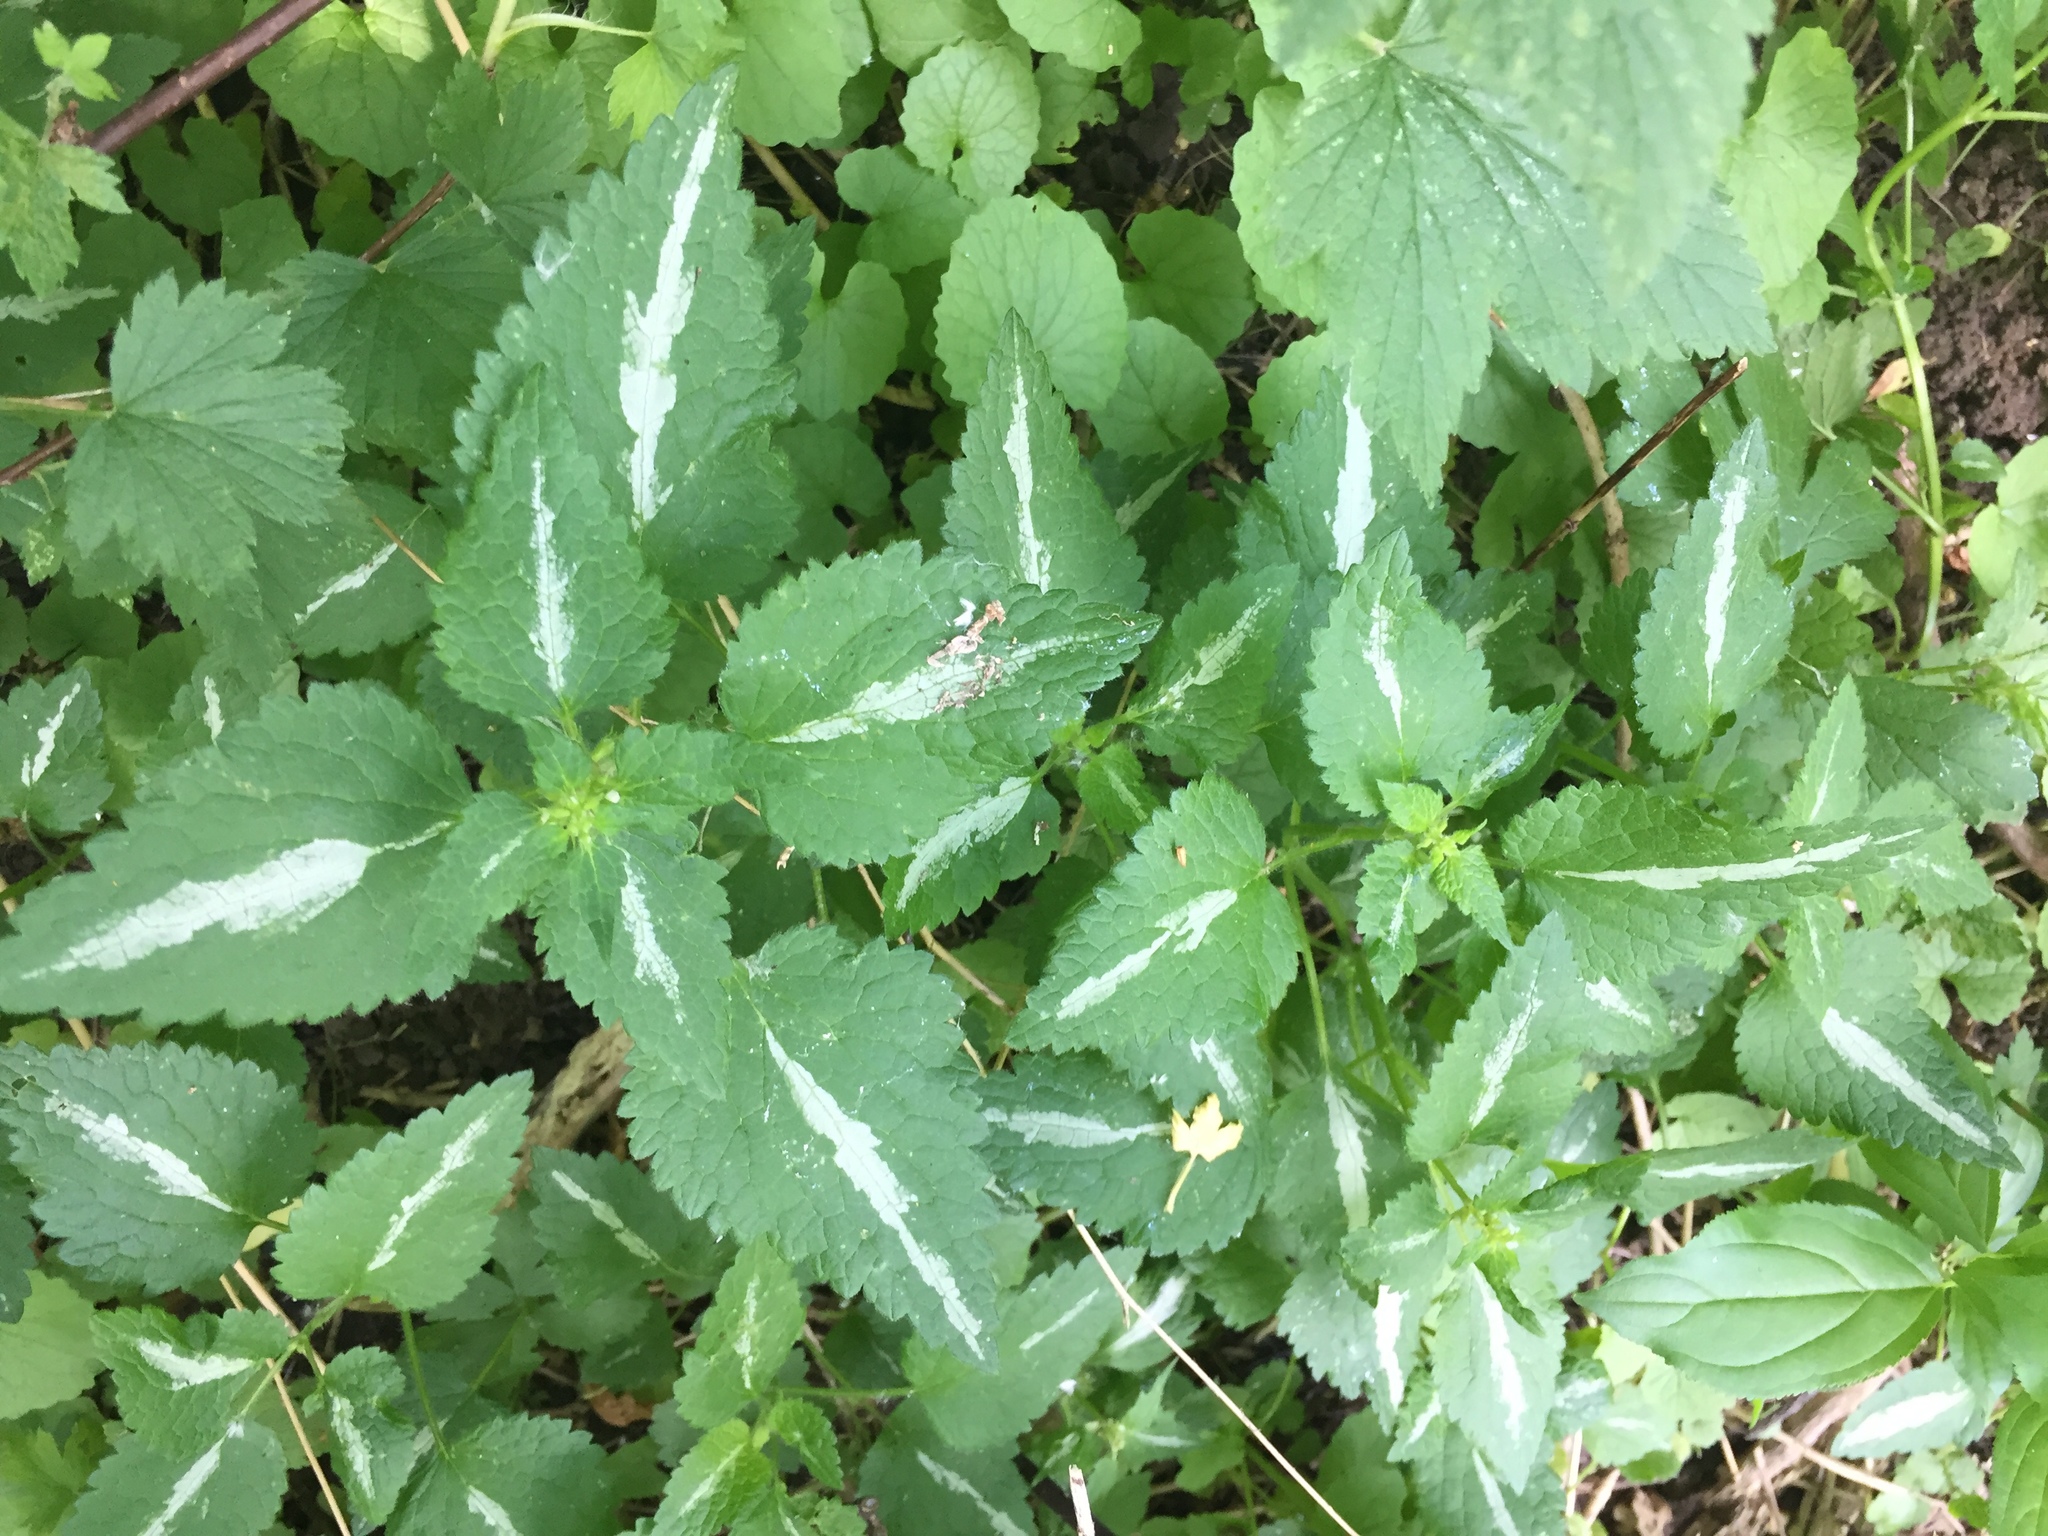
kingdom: Plantae
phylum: Tracheophyta
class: Magnoliopsida
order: Lamiales
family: Lamiaceae
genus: Lamium
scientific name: Lamium maculatum
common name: Spotted dead-nettle
